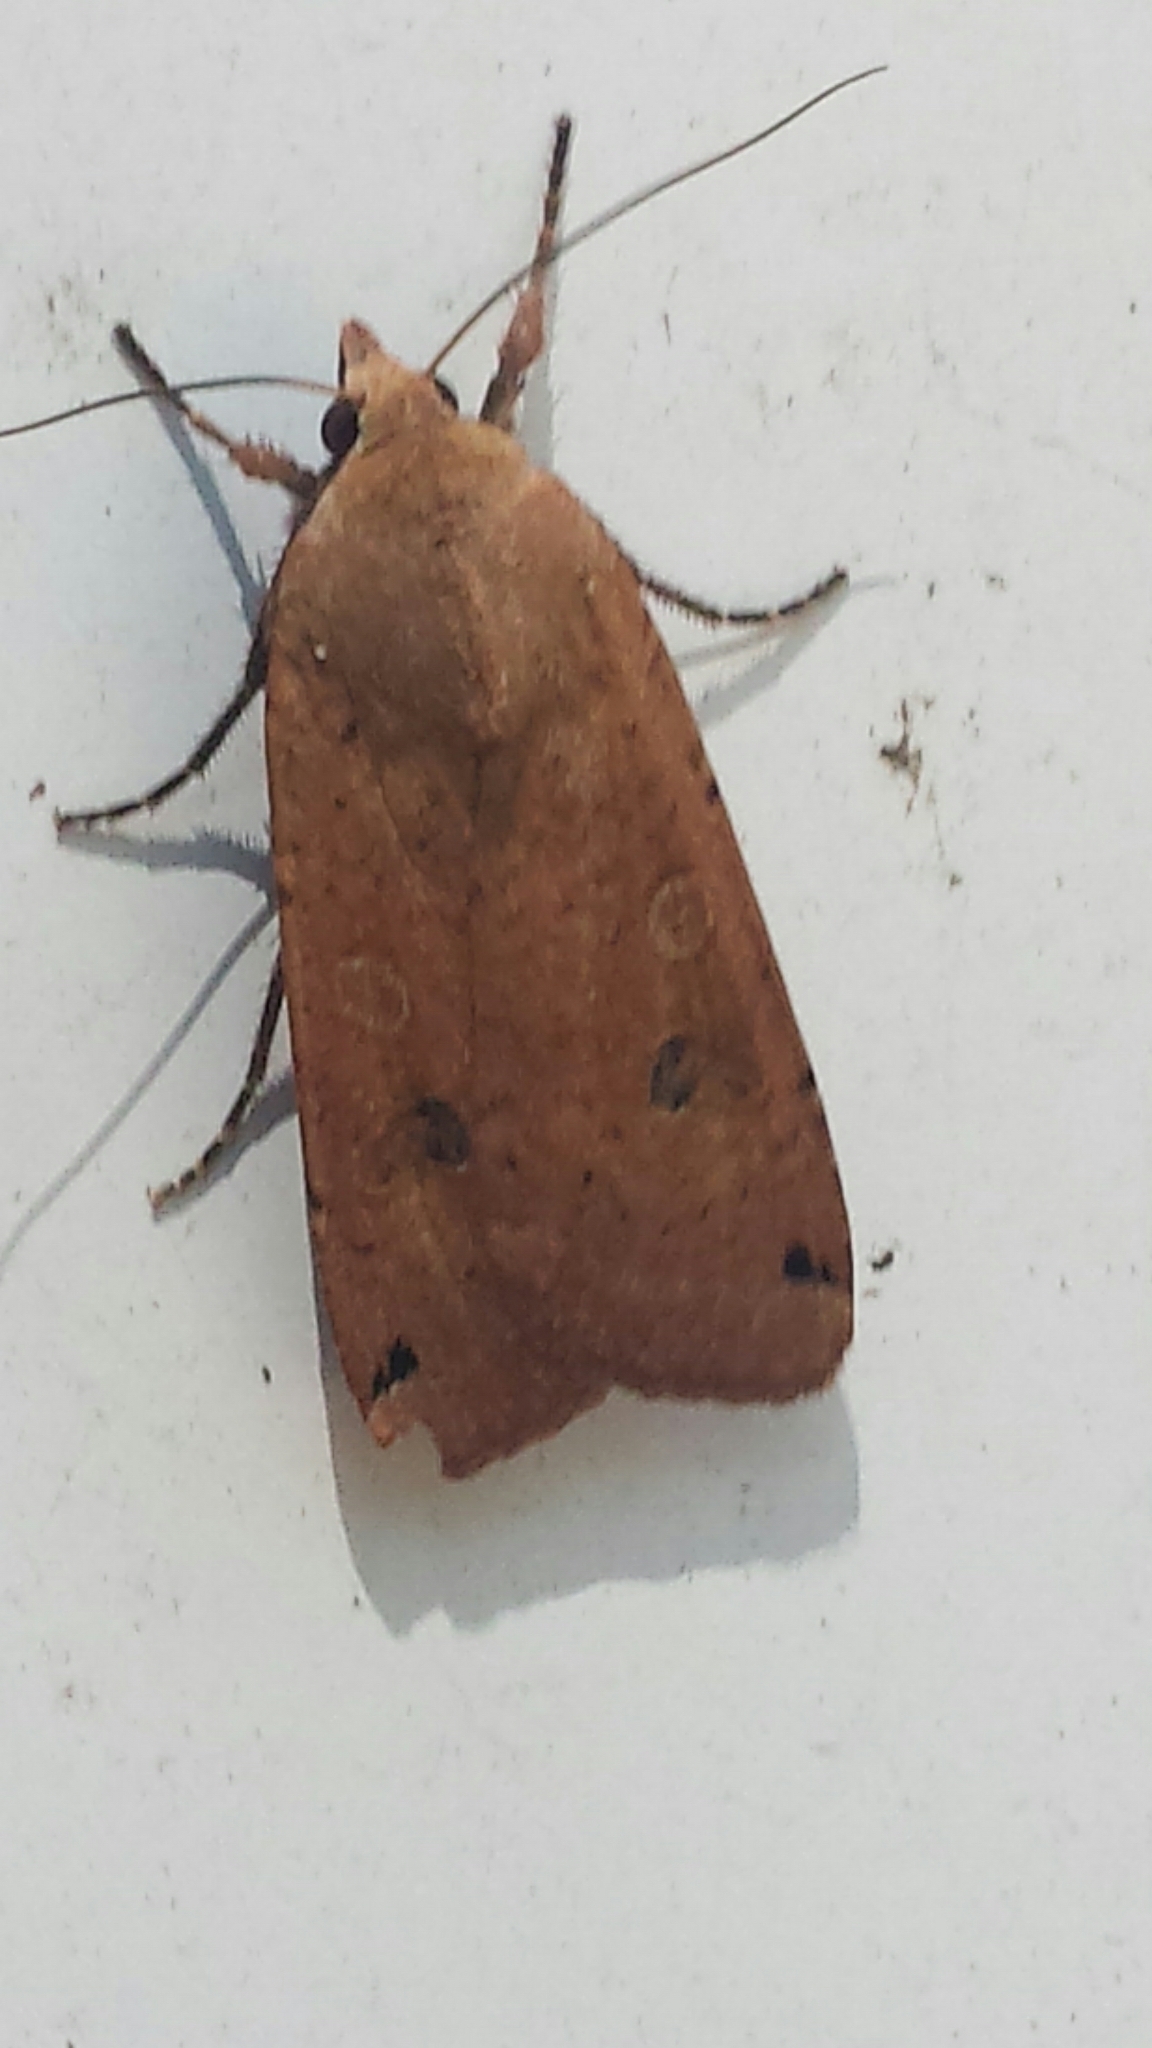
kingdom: Animalia
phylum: Arthropoda
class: Insecta
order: Lepidoptera
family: Noctuidae
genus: Noctua
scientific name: Noctua pronuba
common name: Large yellow underwing
